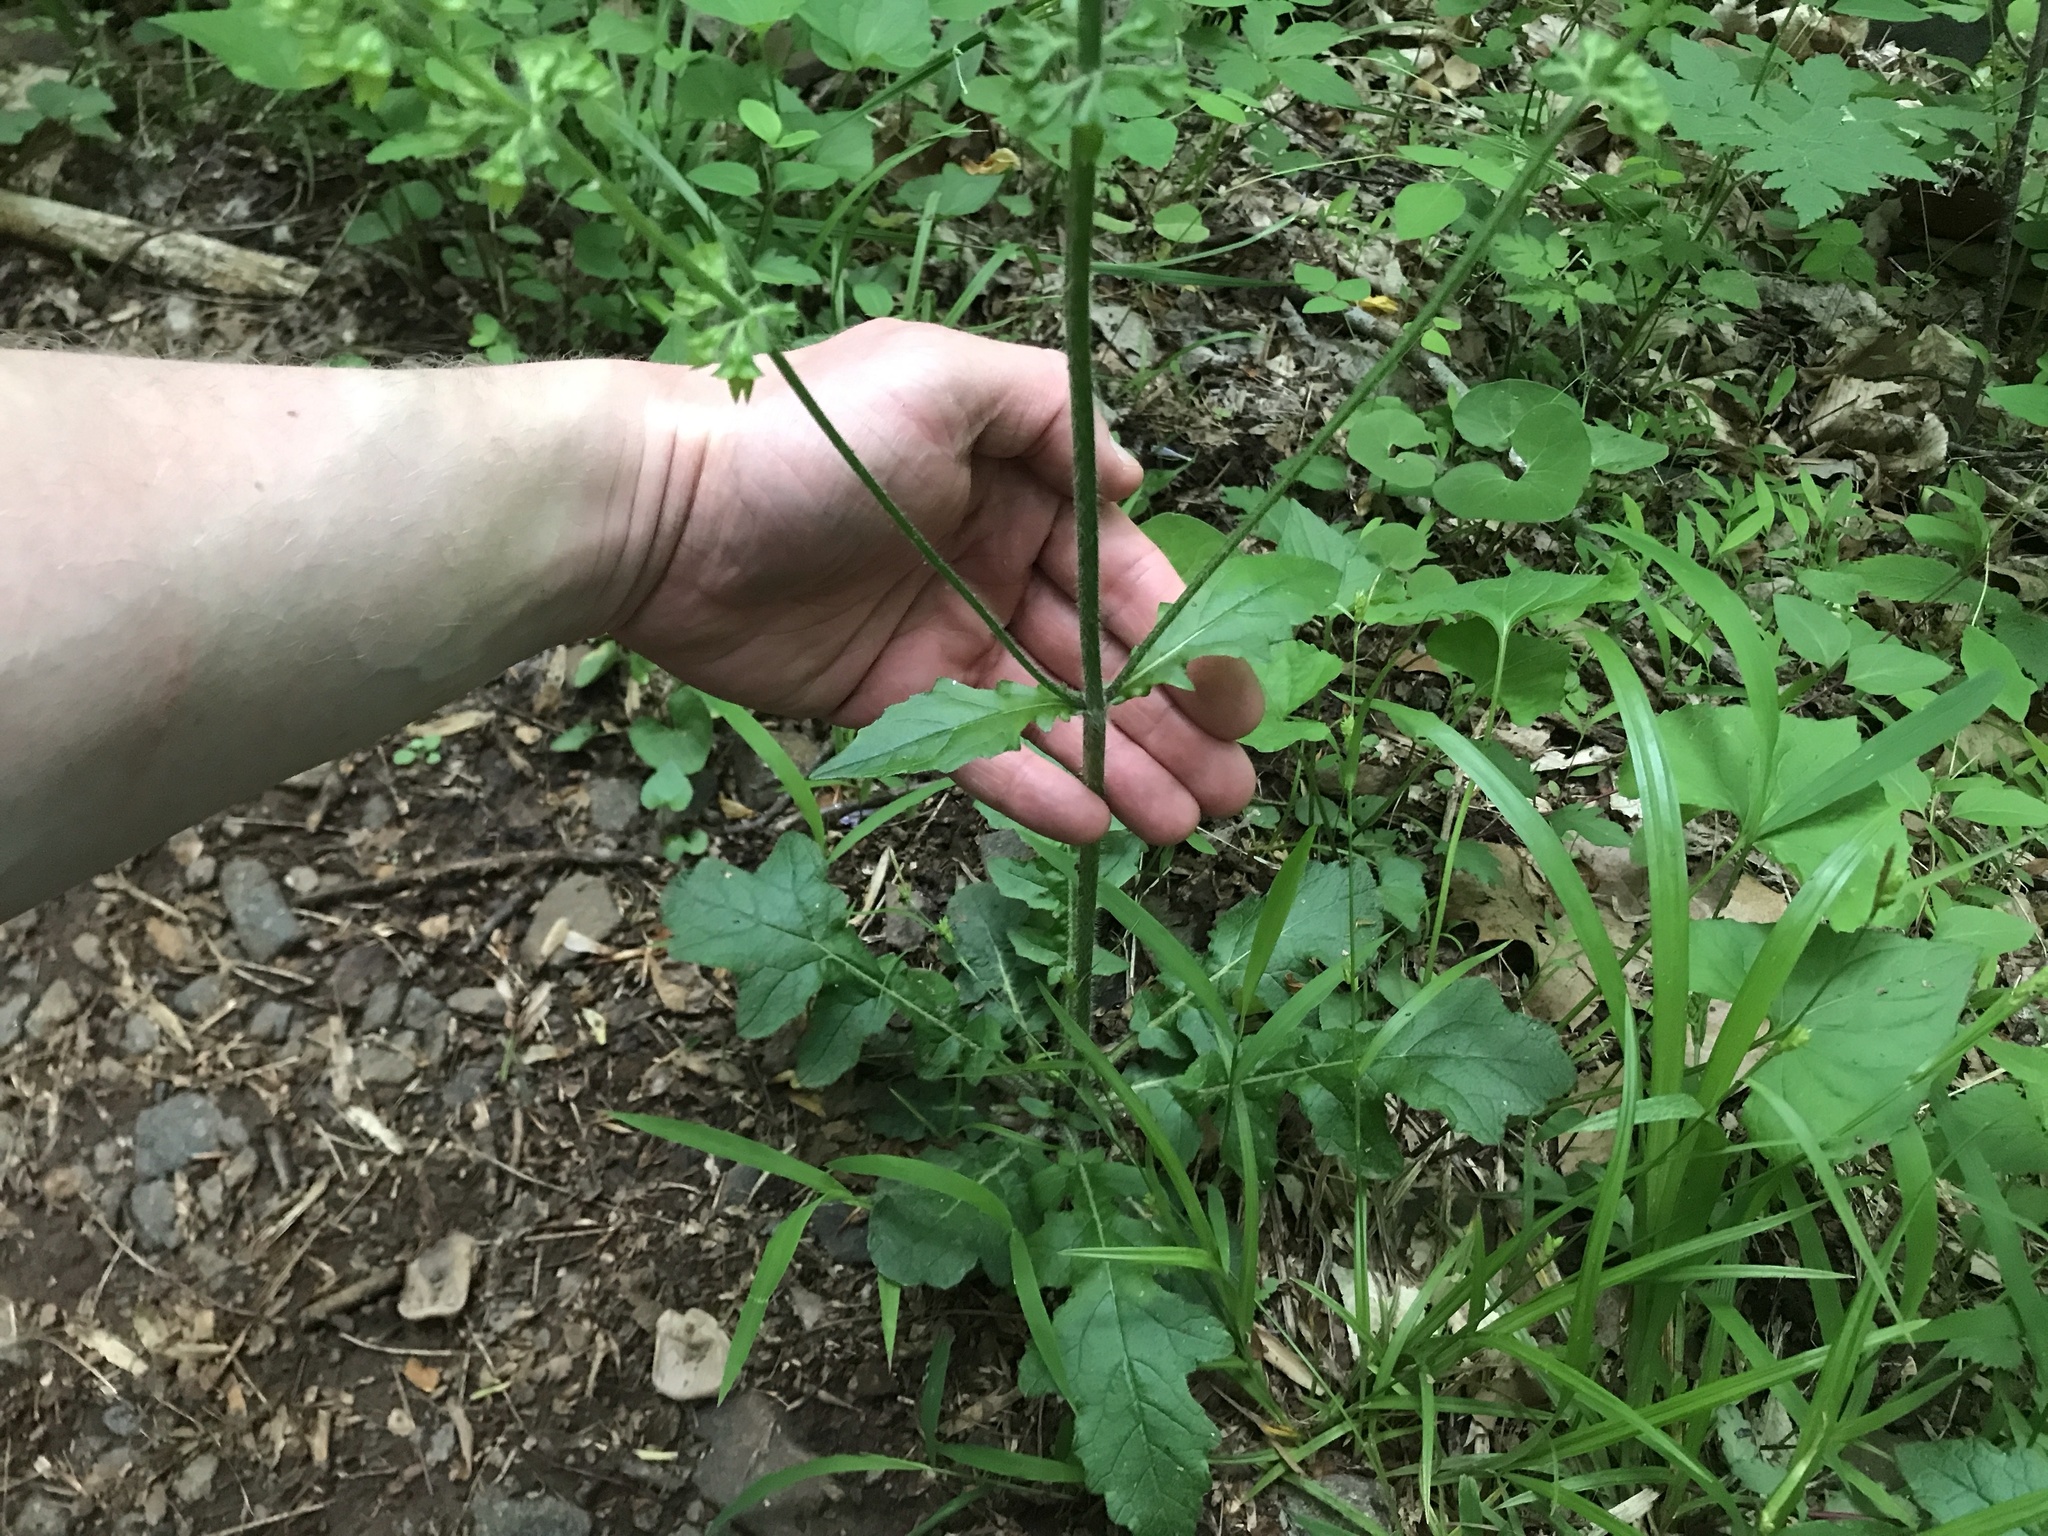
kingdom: Plantae
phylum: Tracheophyta
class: Magnoliopsida
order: Lamiales
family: Lamiaceae
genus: Salvia
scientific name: Salvia lyrata
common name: Cancerweed
